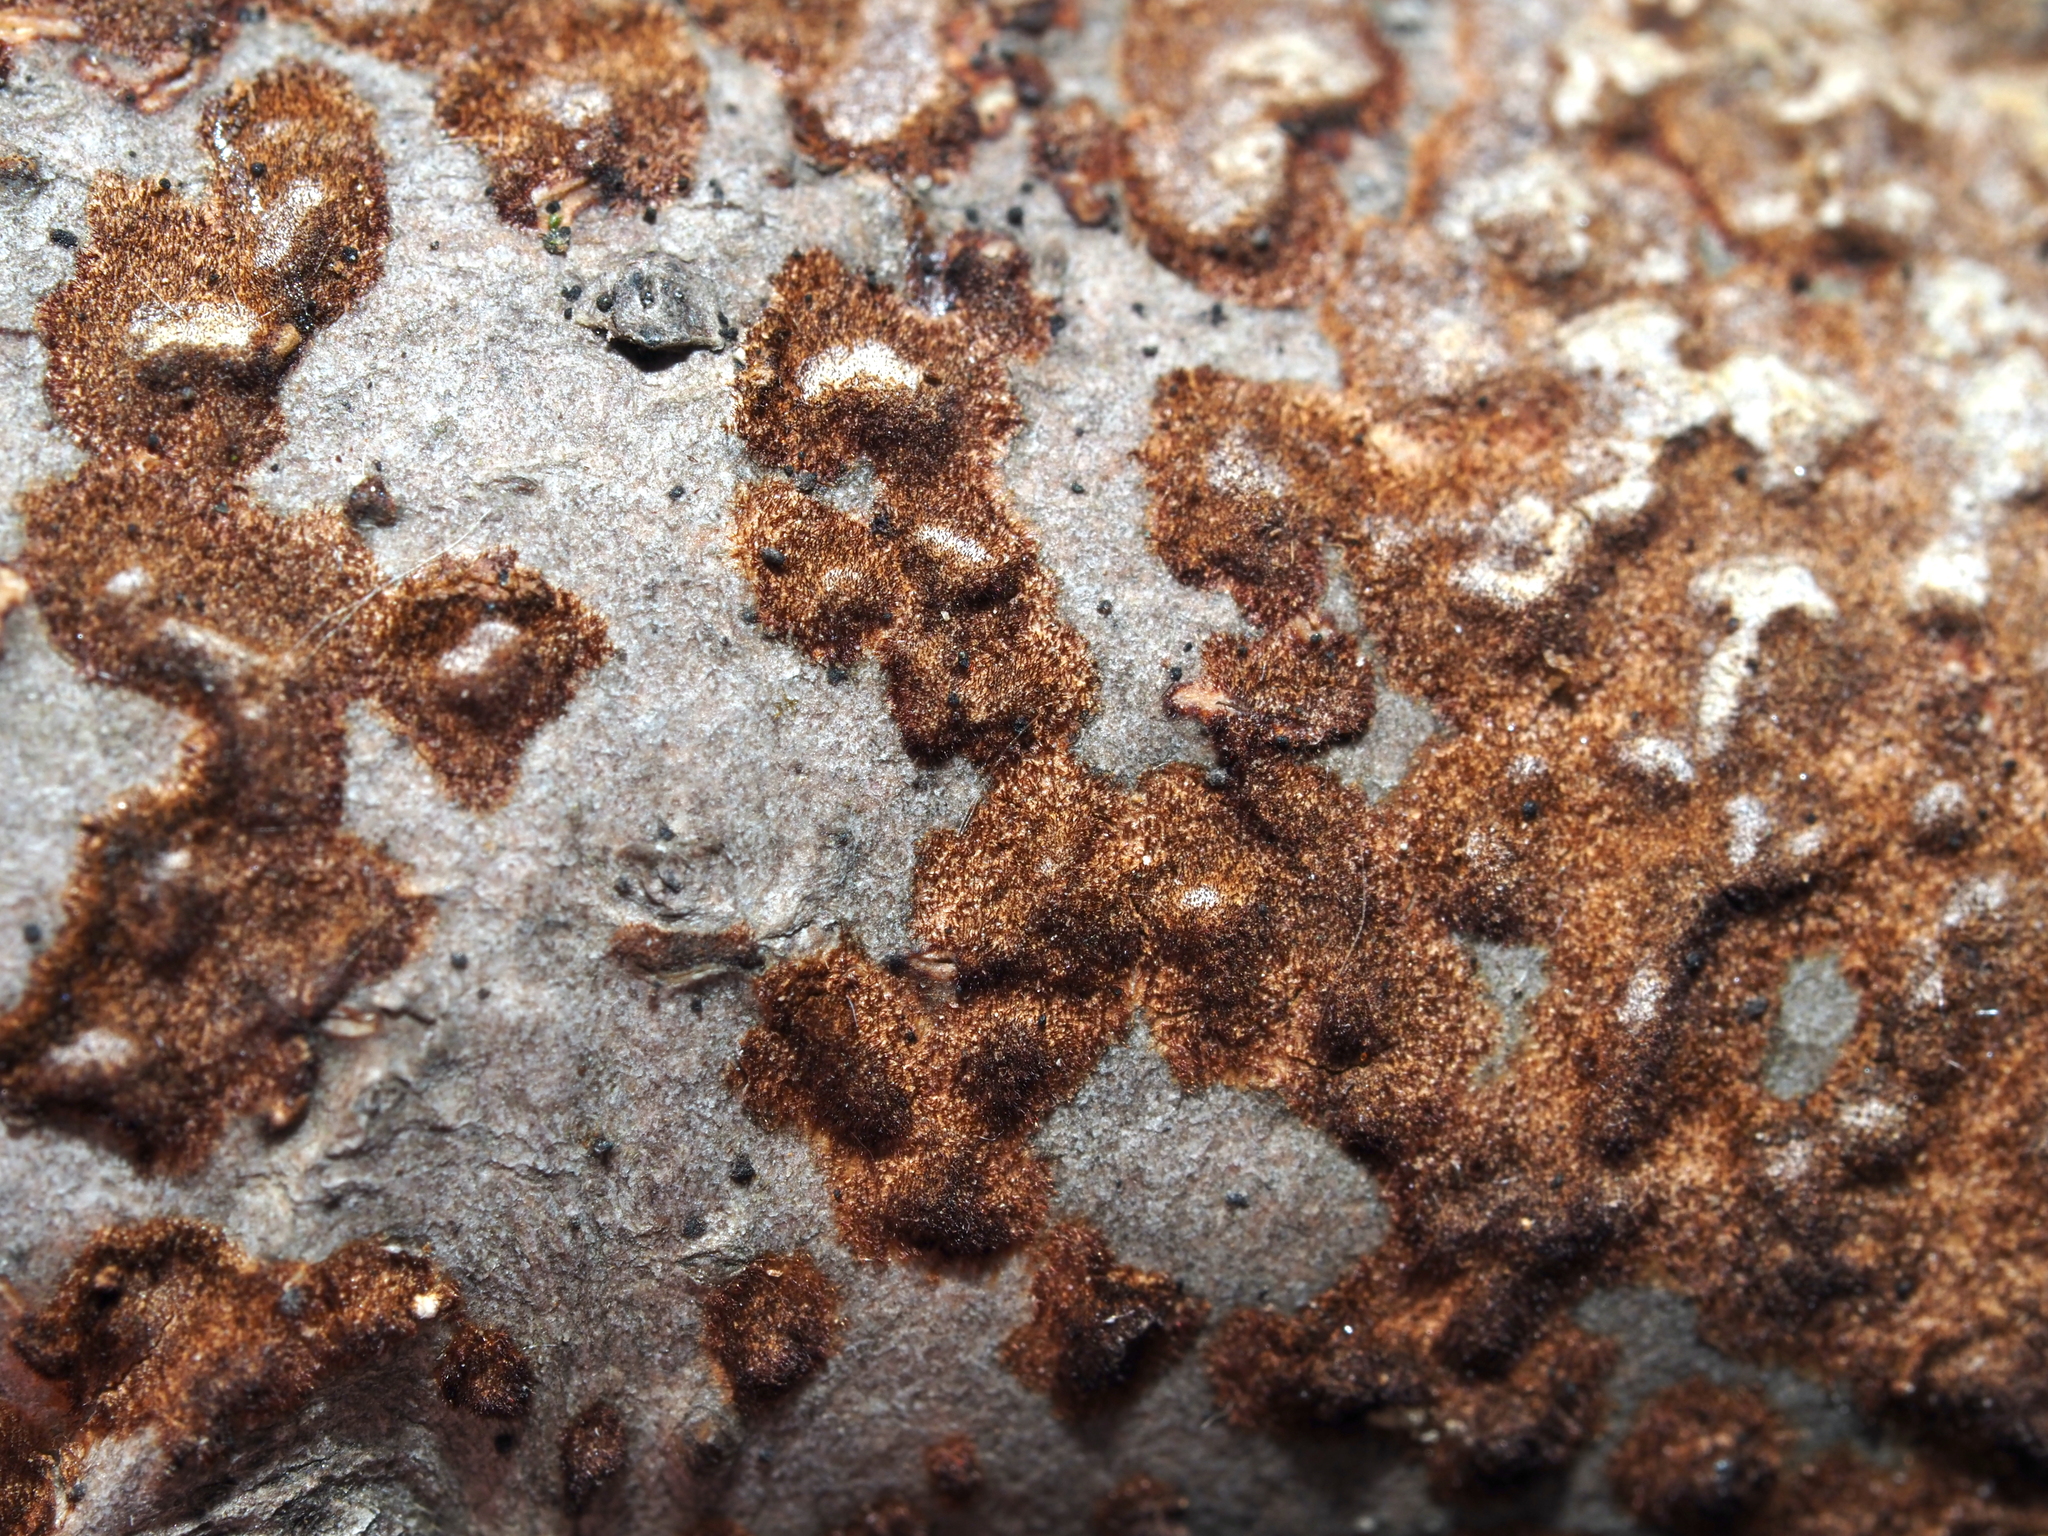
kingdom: Fungi
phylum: Basidiomycota
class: Agaricomycetes
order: Hymenochaetales
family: Hymenochaetaceae
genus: Hydnoporia
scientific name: Hydnoporia olivacea
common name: Brown-toothed crust fungus
